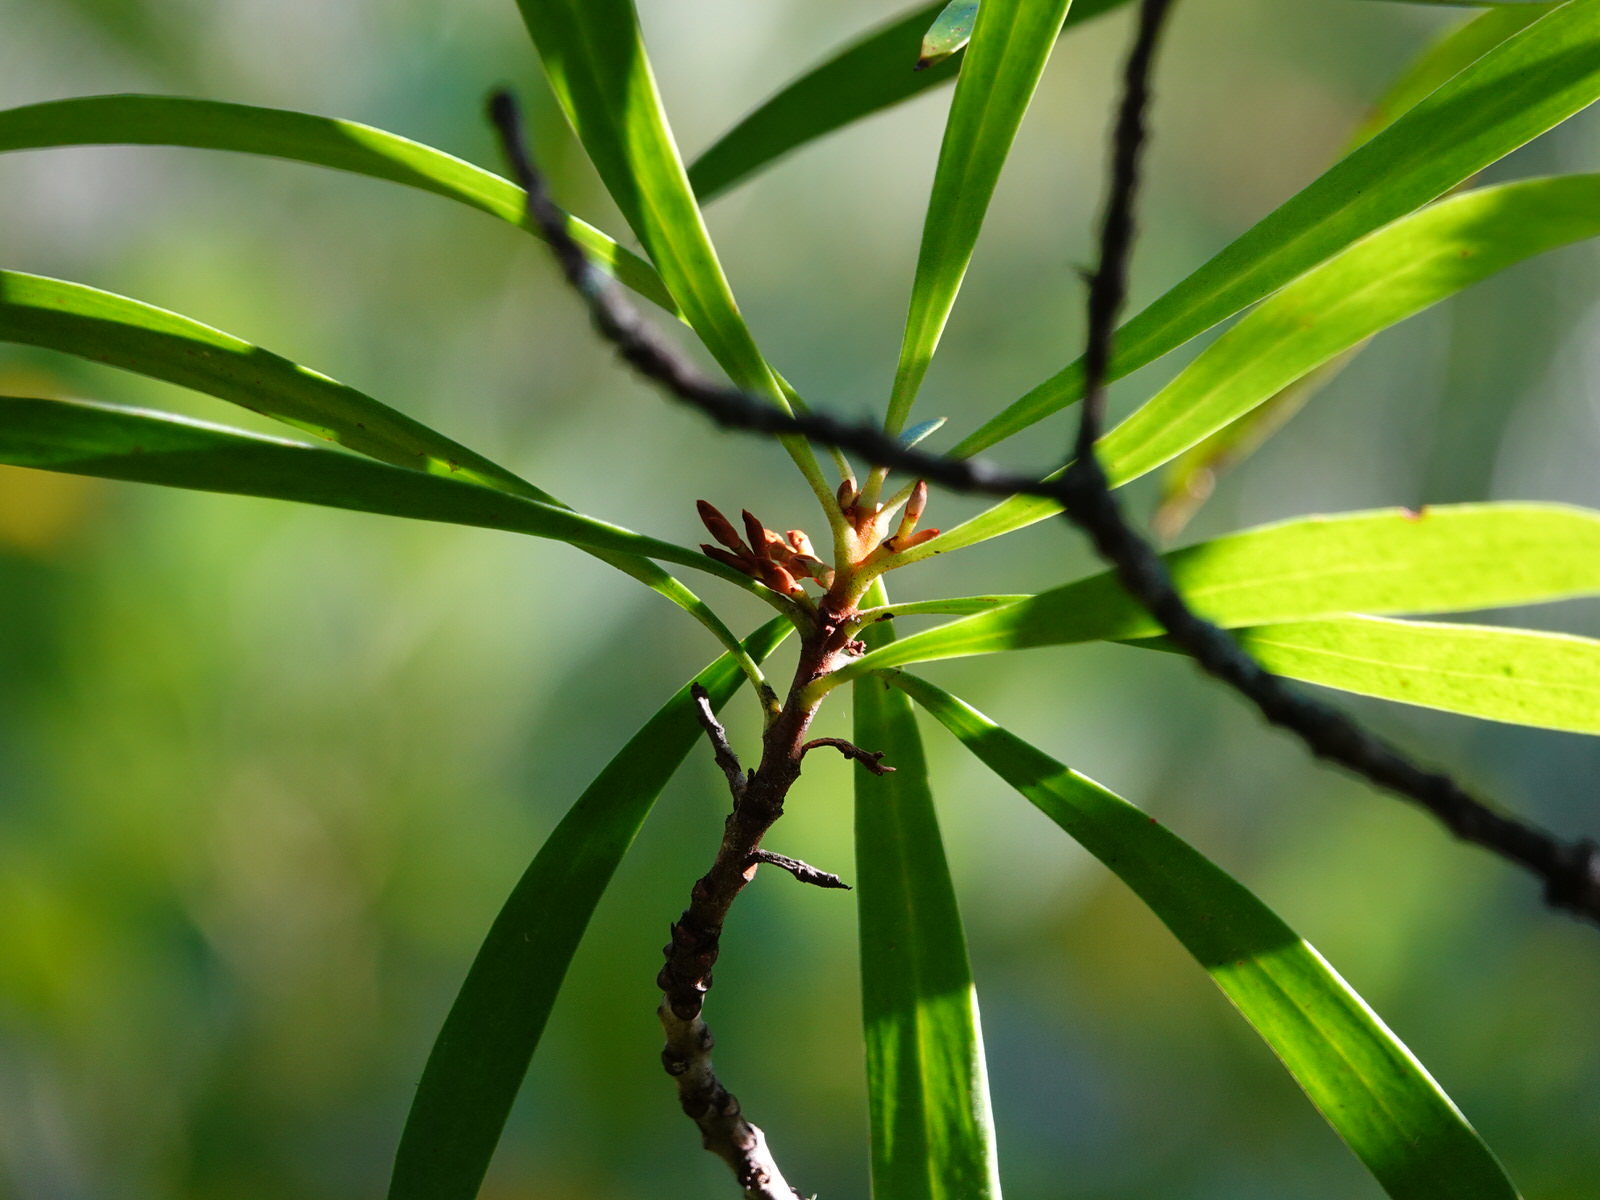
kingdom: Plantae
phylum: Tracheophyta
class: Magnoliopsida
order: Proteales
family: Proteaceae
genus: Toronia
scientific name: Toronia toru
